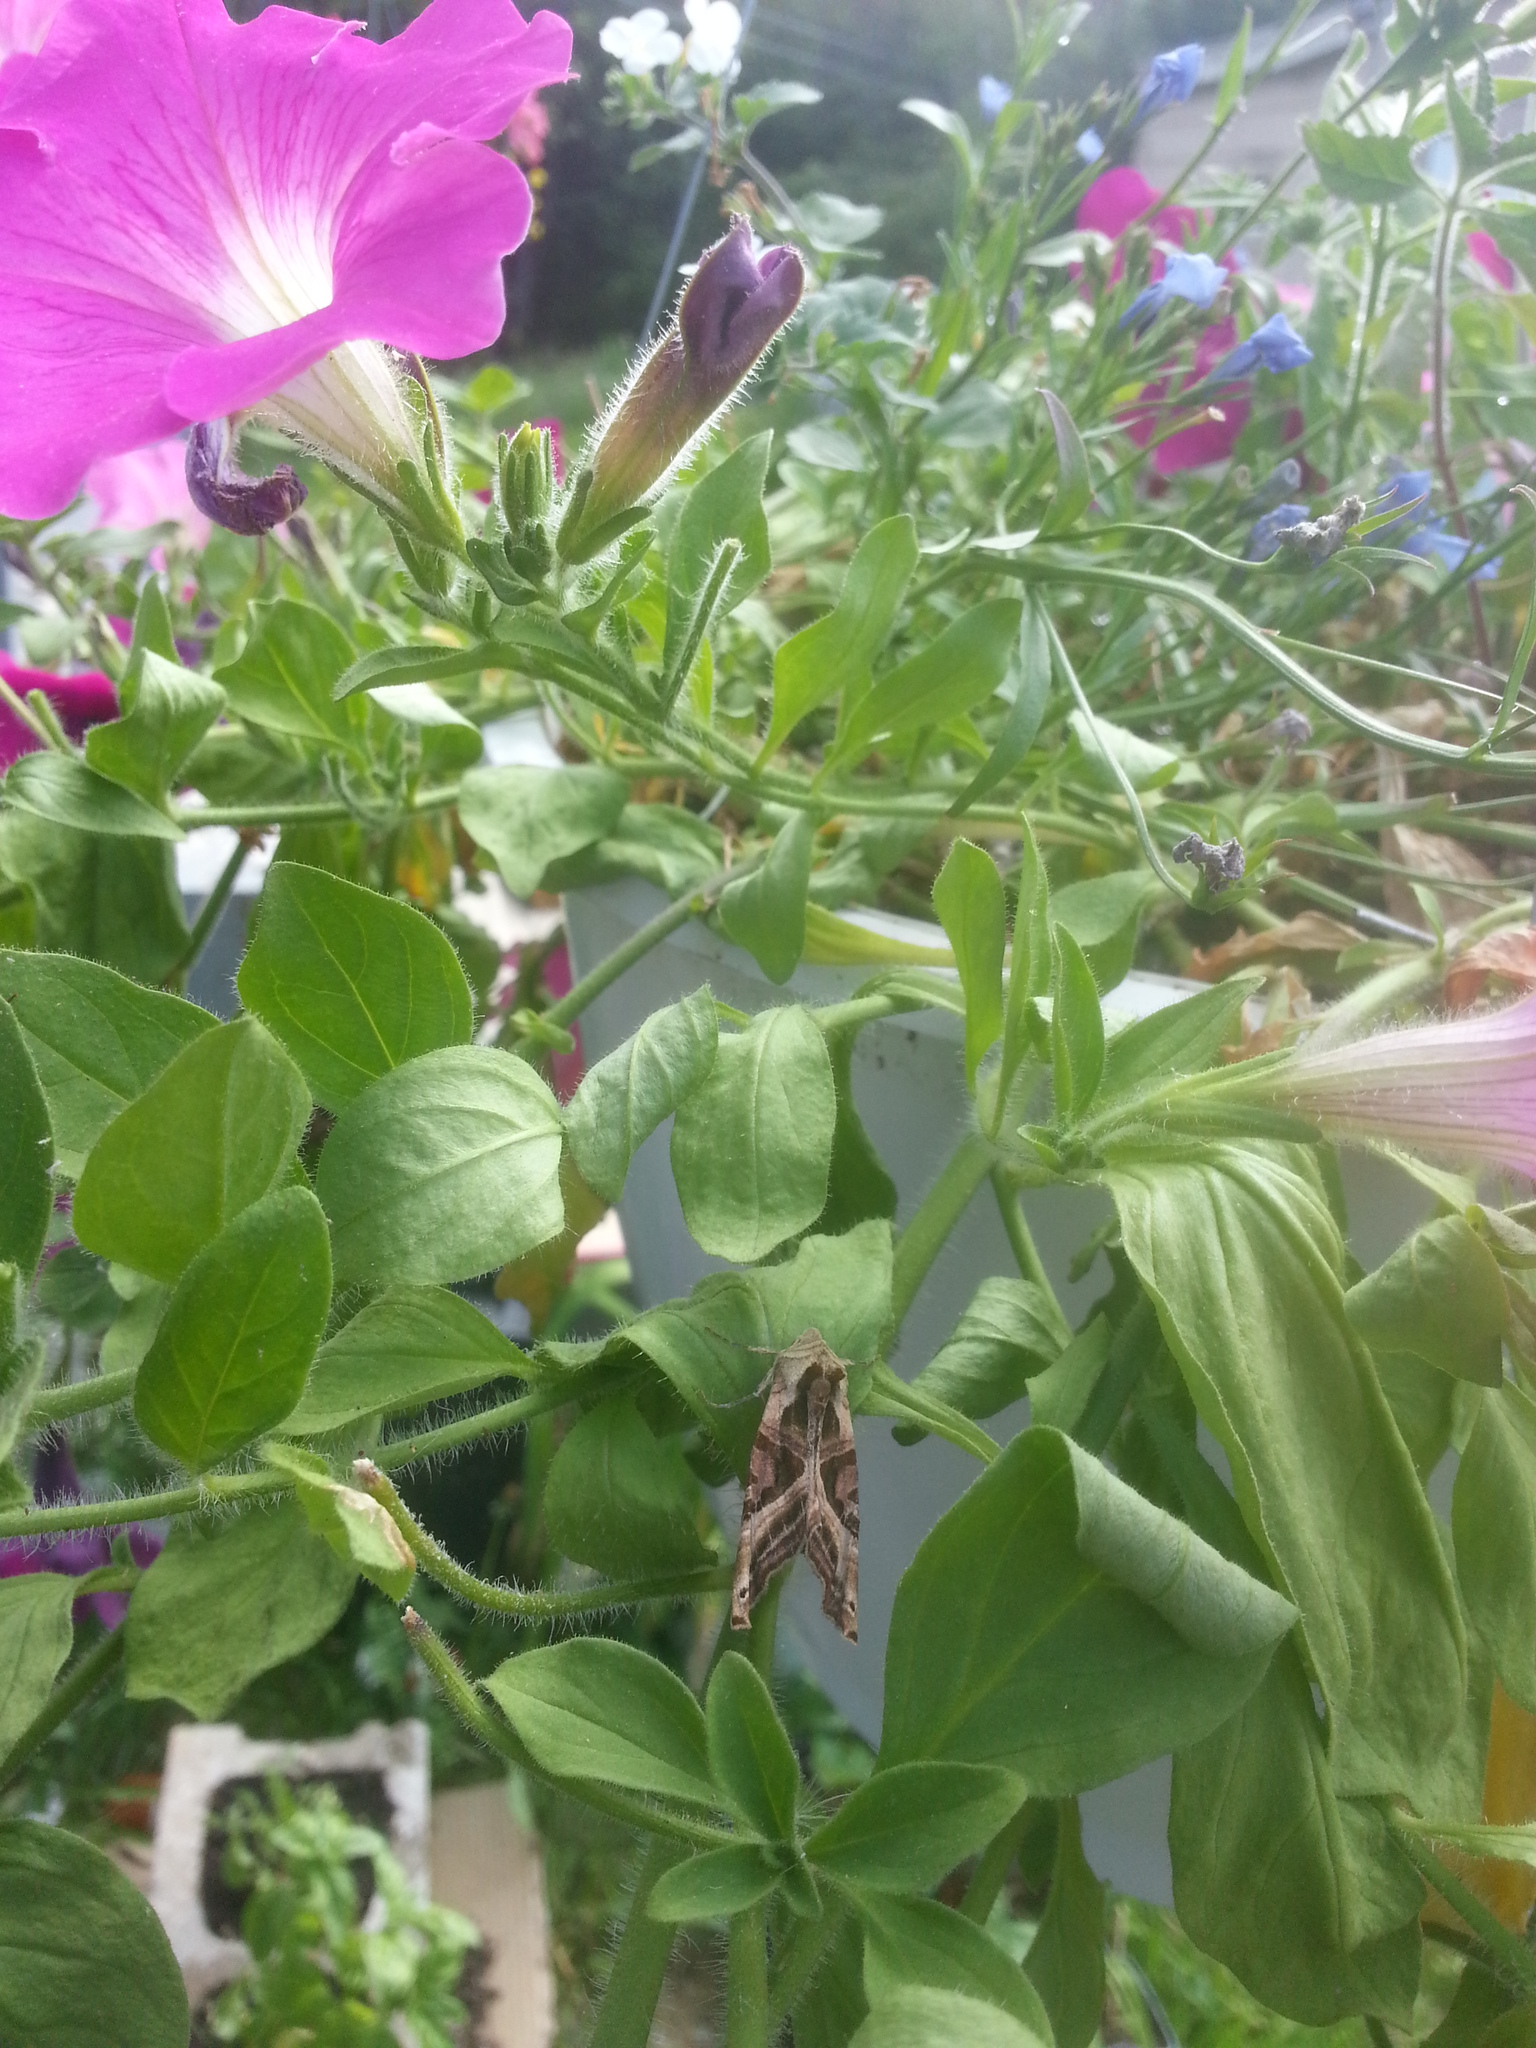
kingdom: Animalia
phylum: Arthropoda
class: Insecta
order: Lepidoptera
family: Noctuidae
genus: Phlogophora
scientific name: Phlogophora iris
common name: Olive angle shades
